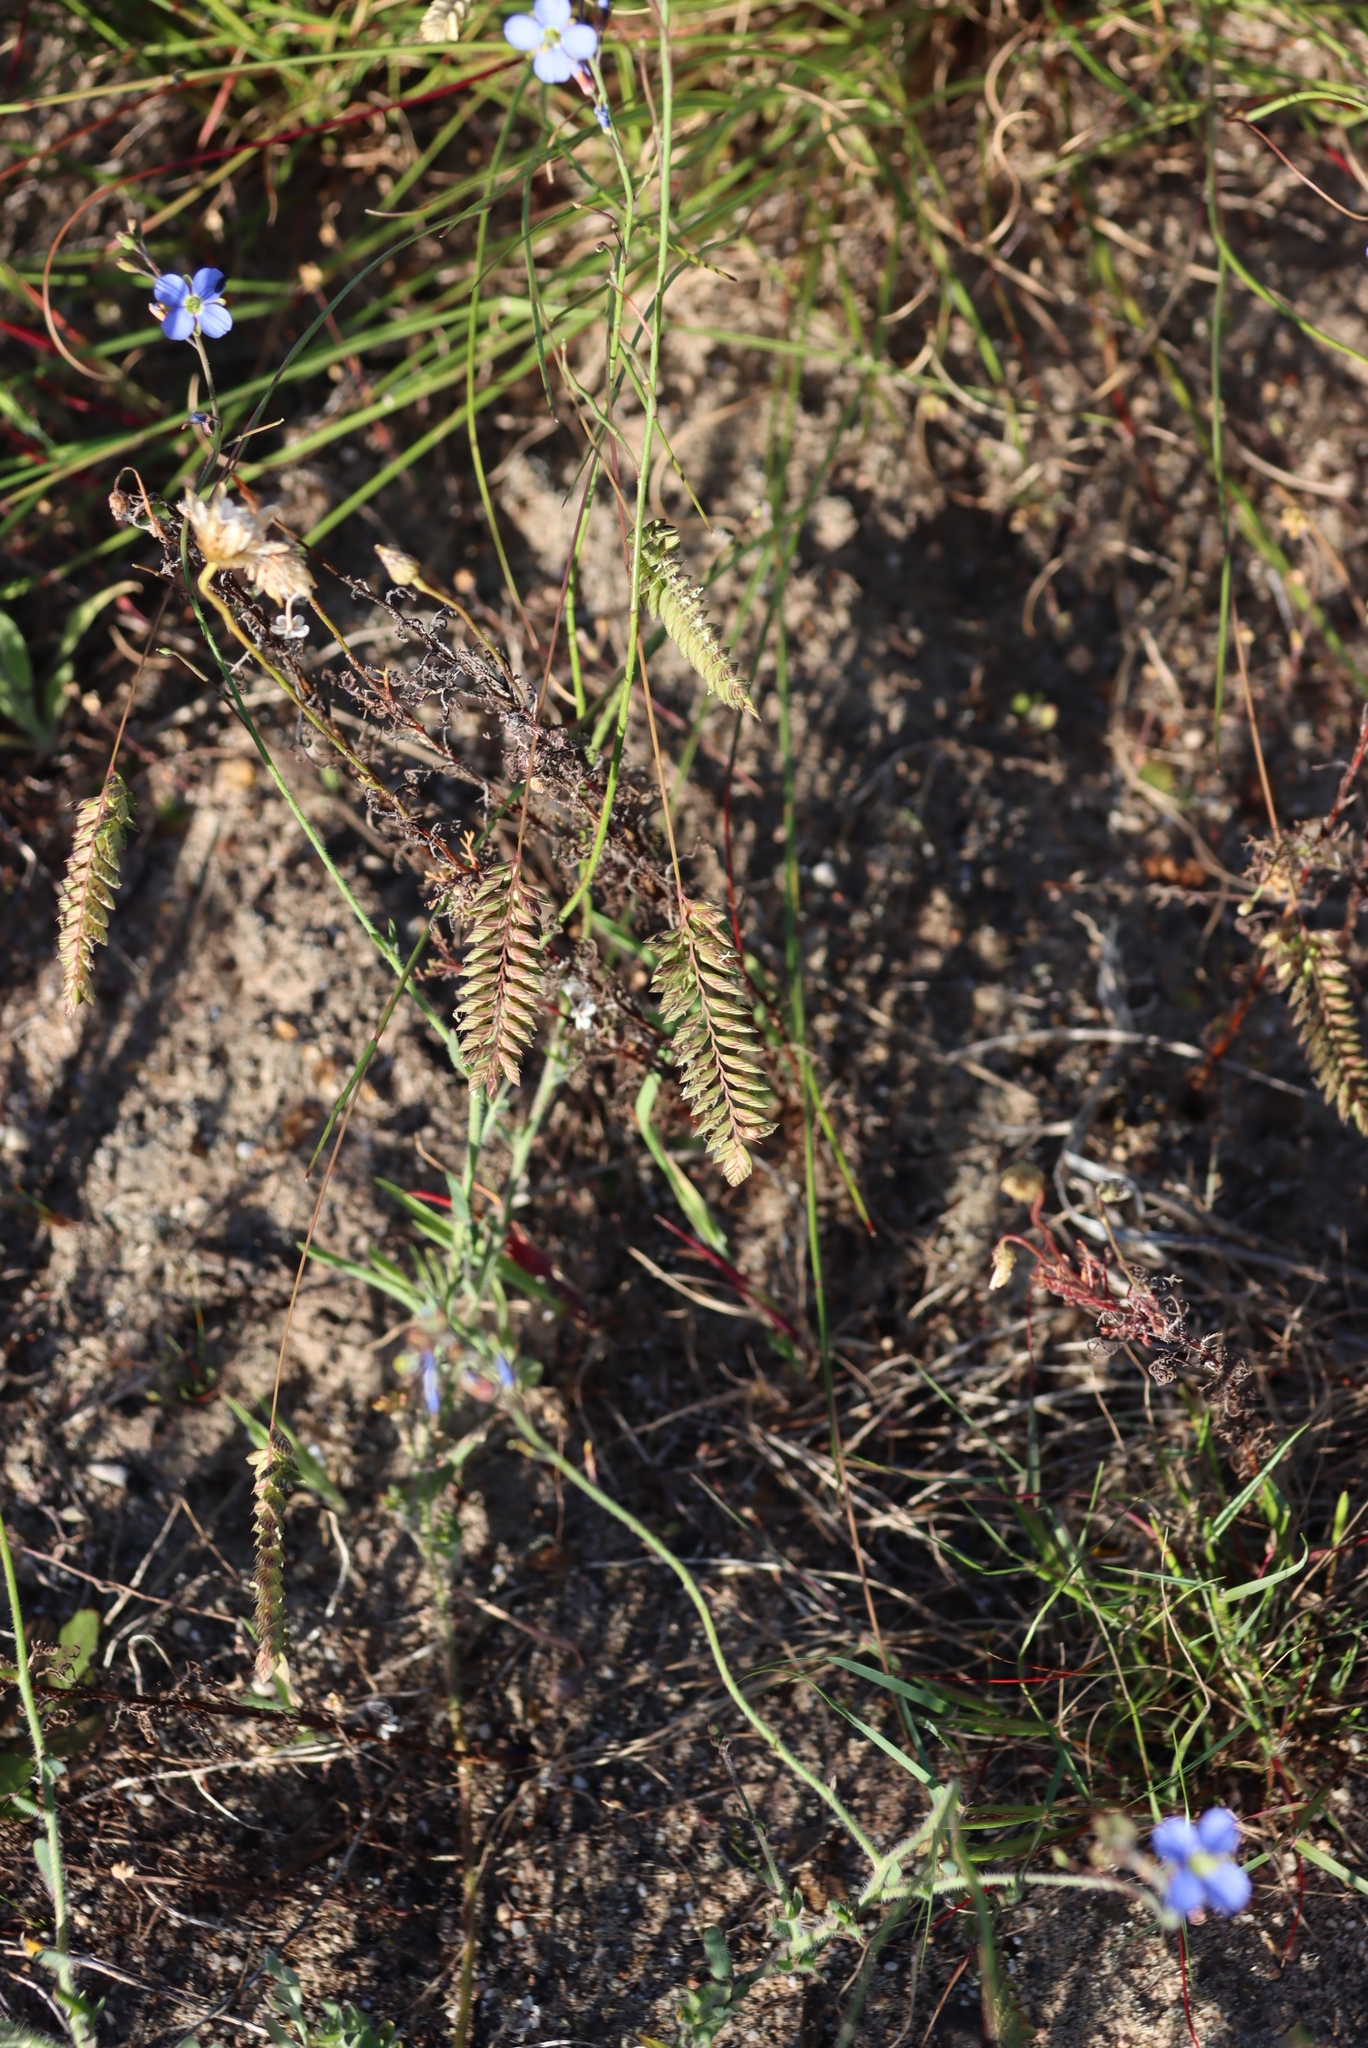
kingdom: Plantae
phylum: Tracheophyta
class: Liliopsida
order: Poales
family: Poaceae
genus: Tribolium
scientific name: Tribolium uniolae
